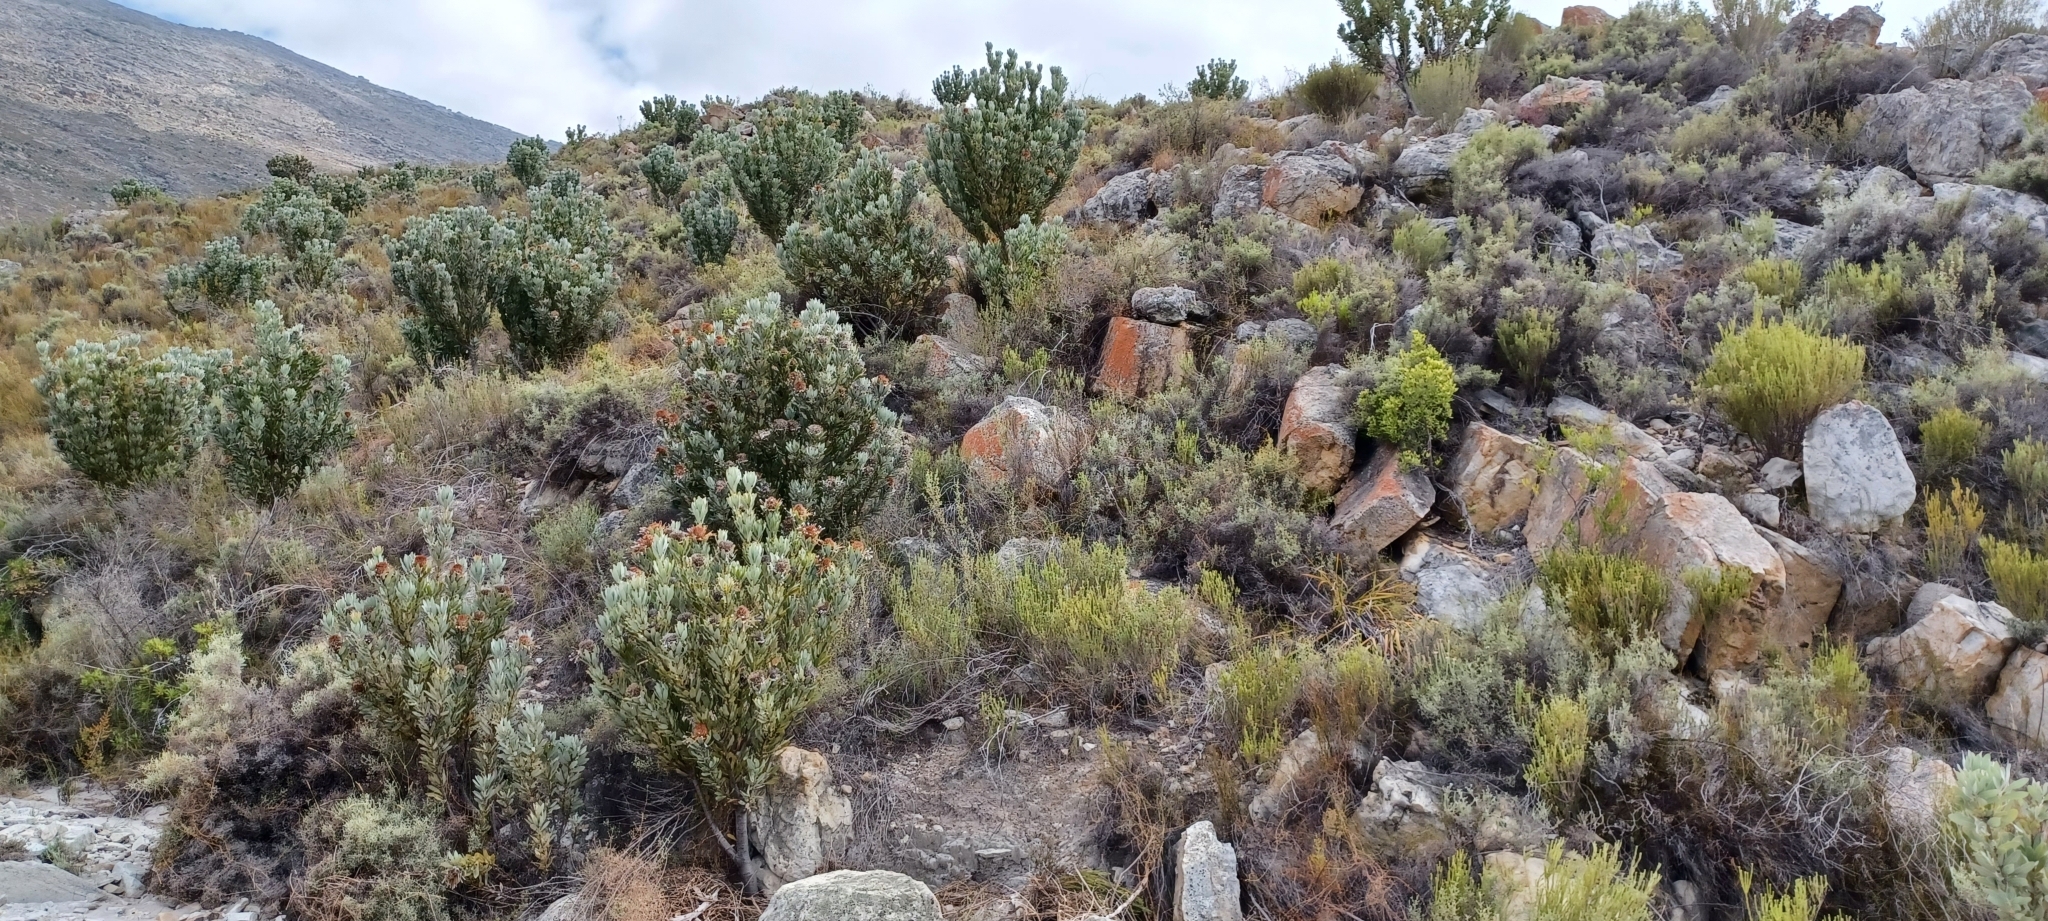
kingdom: Plantae
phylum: Tracheophyta
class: Magnoliopsida
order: Proteales
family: Proteaceae
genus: Protea
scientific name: Protea laurifolia
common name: Grey-leaf sugarbsh
